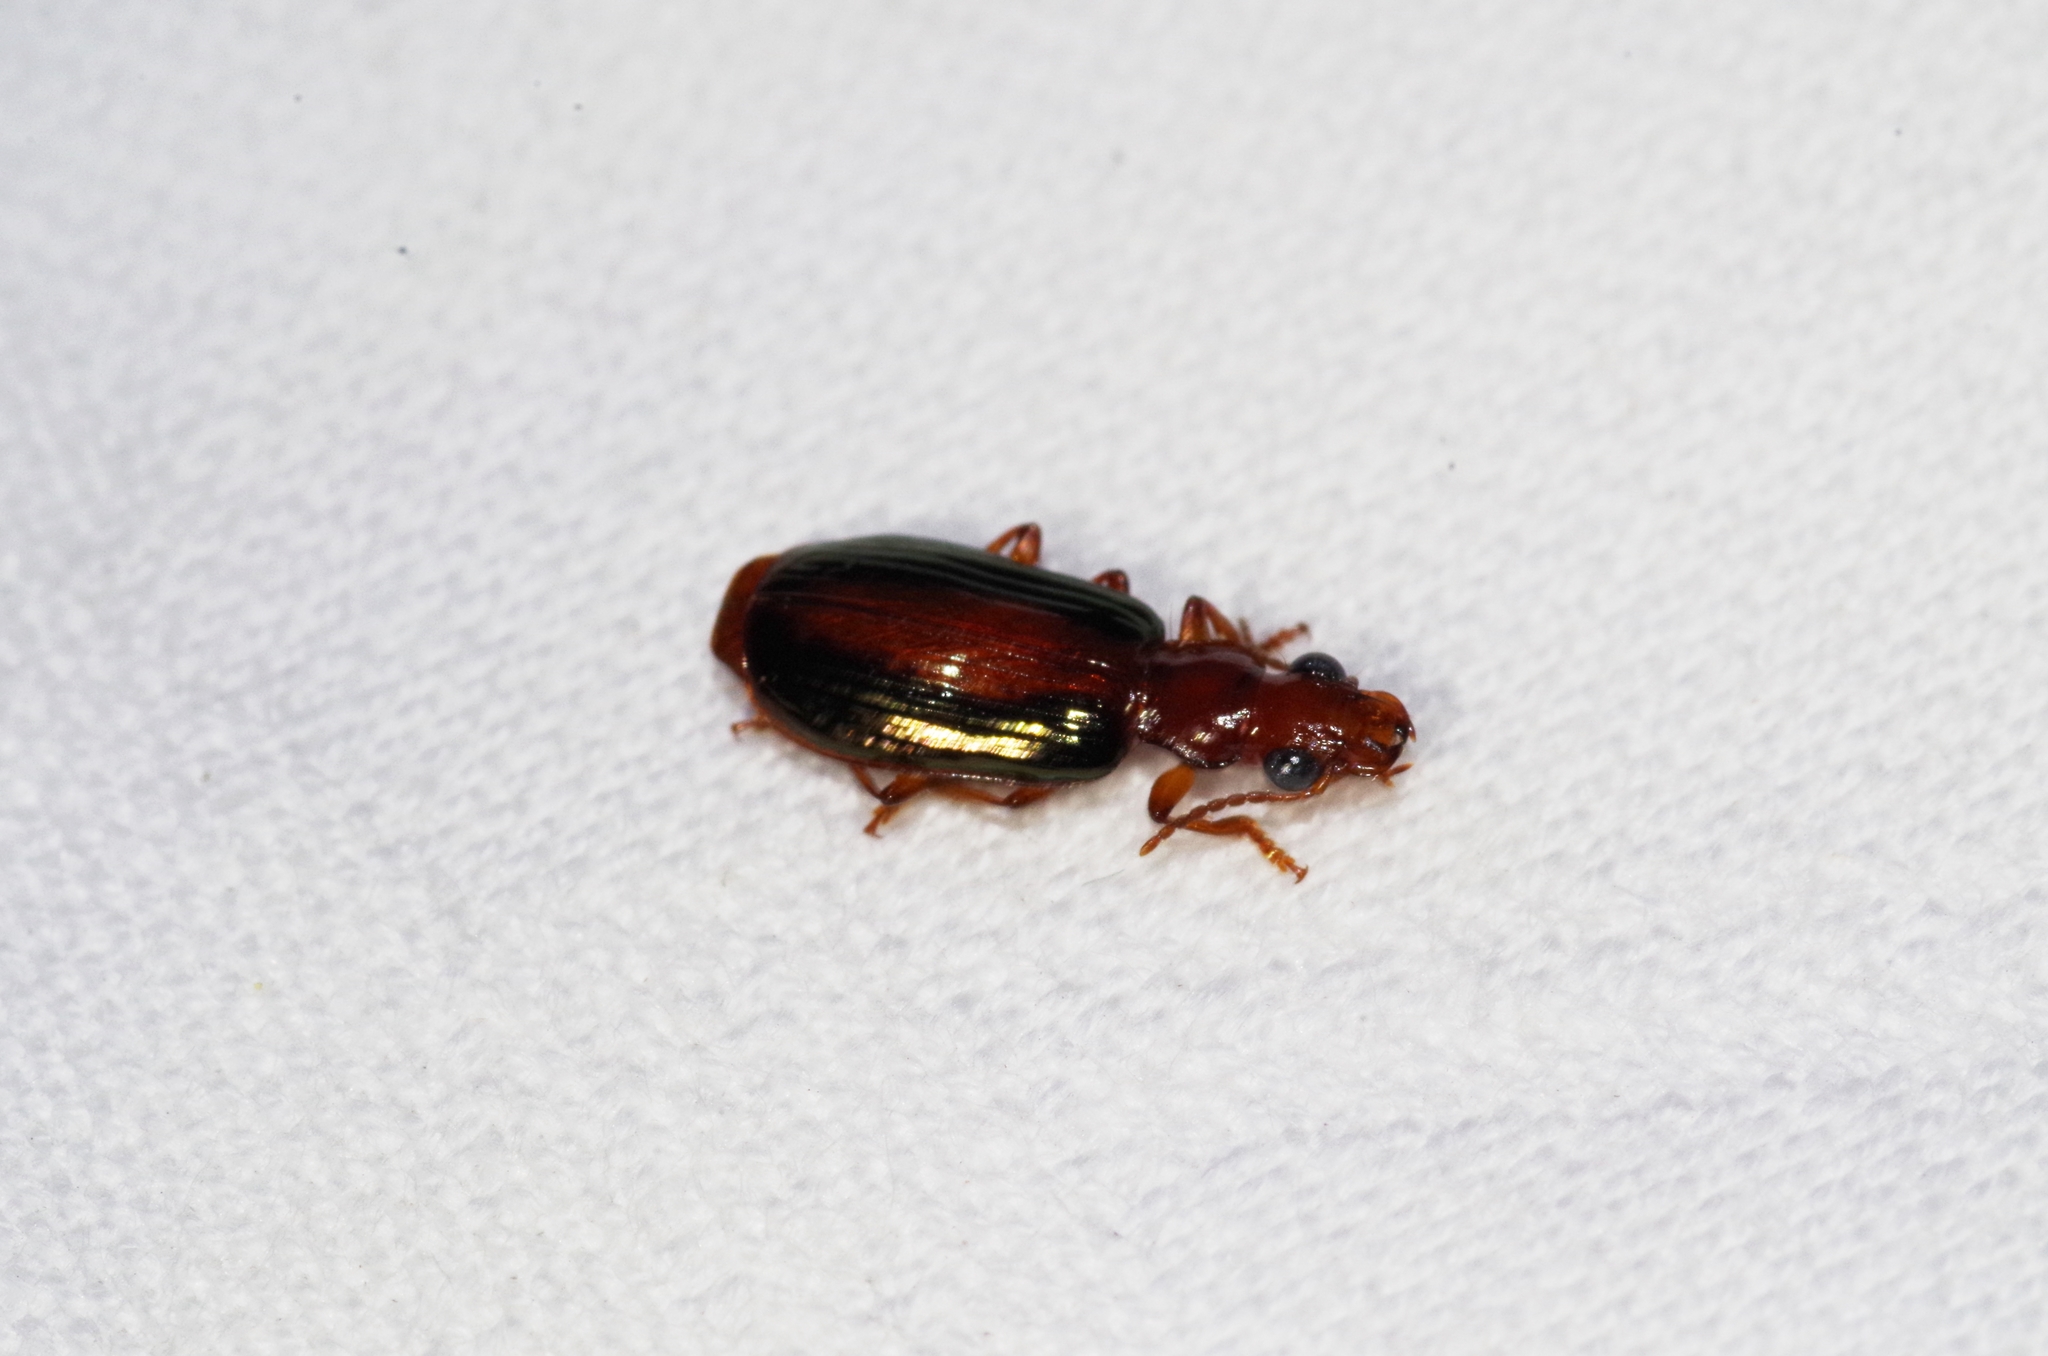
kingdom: Animalia
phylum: Arthropoda
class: Insecta
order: Coleoptera
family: Carabidae
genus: Parena
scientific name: Parena latecincta
